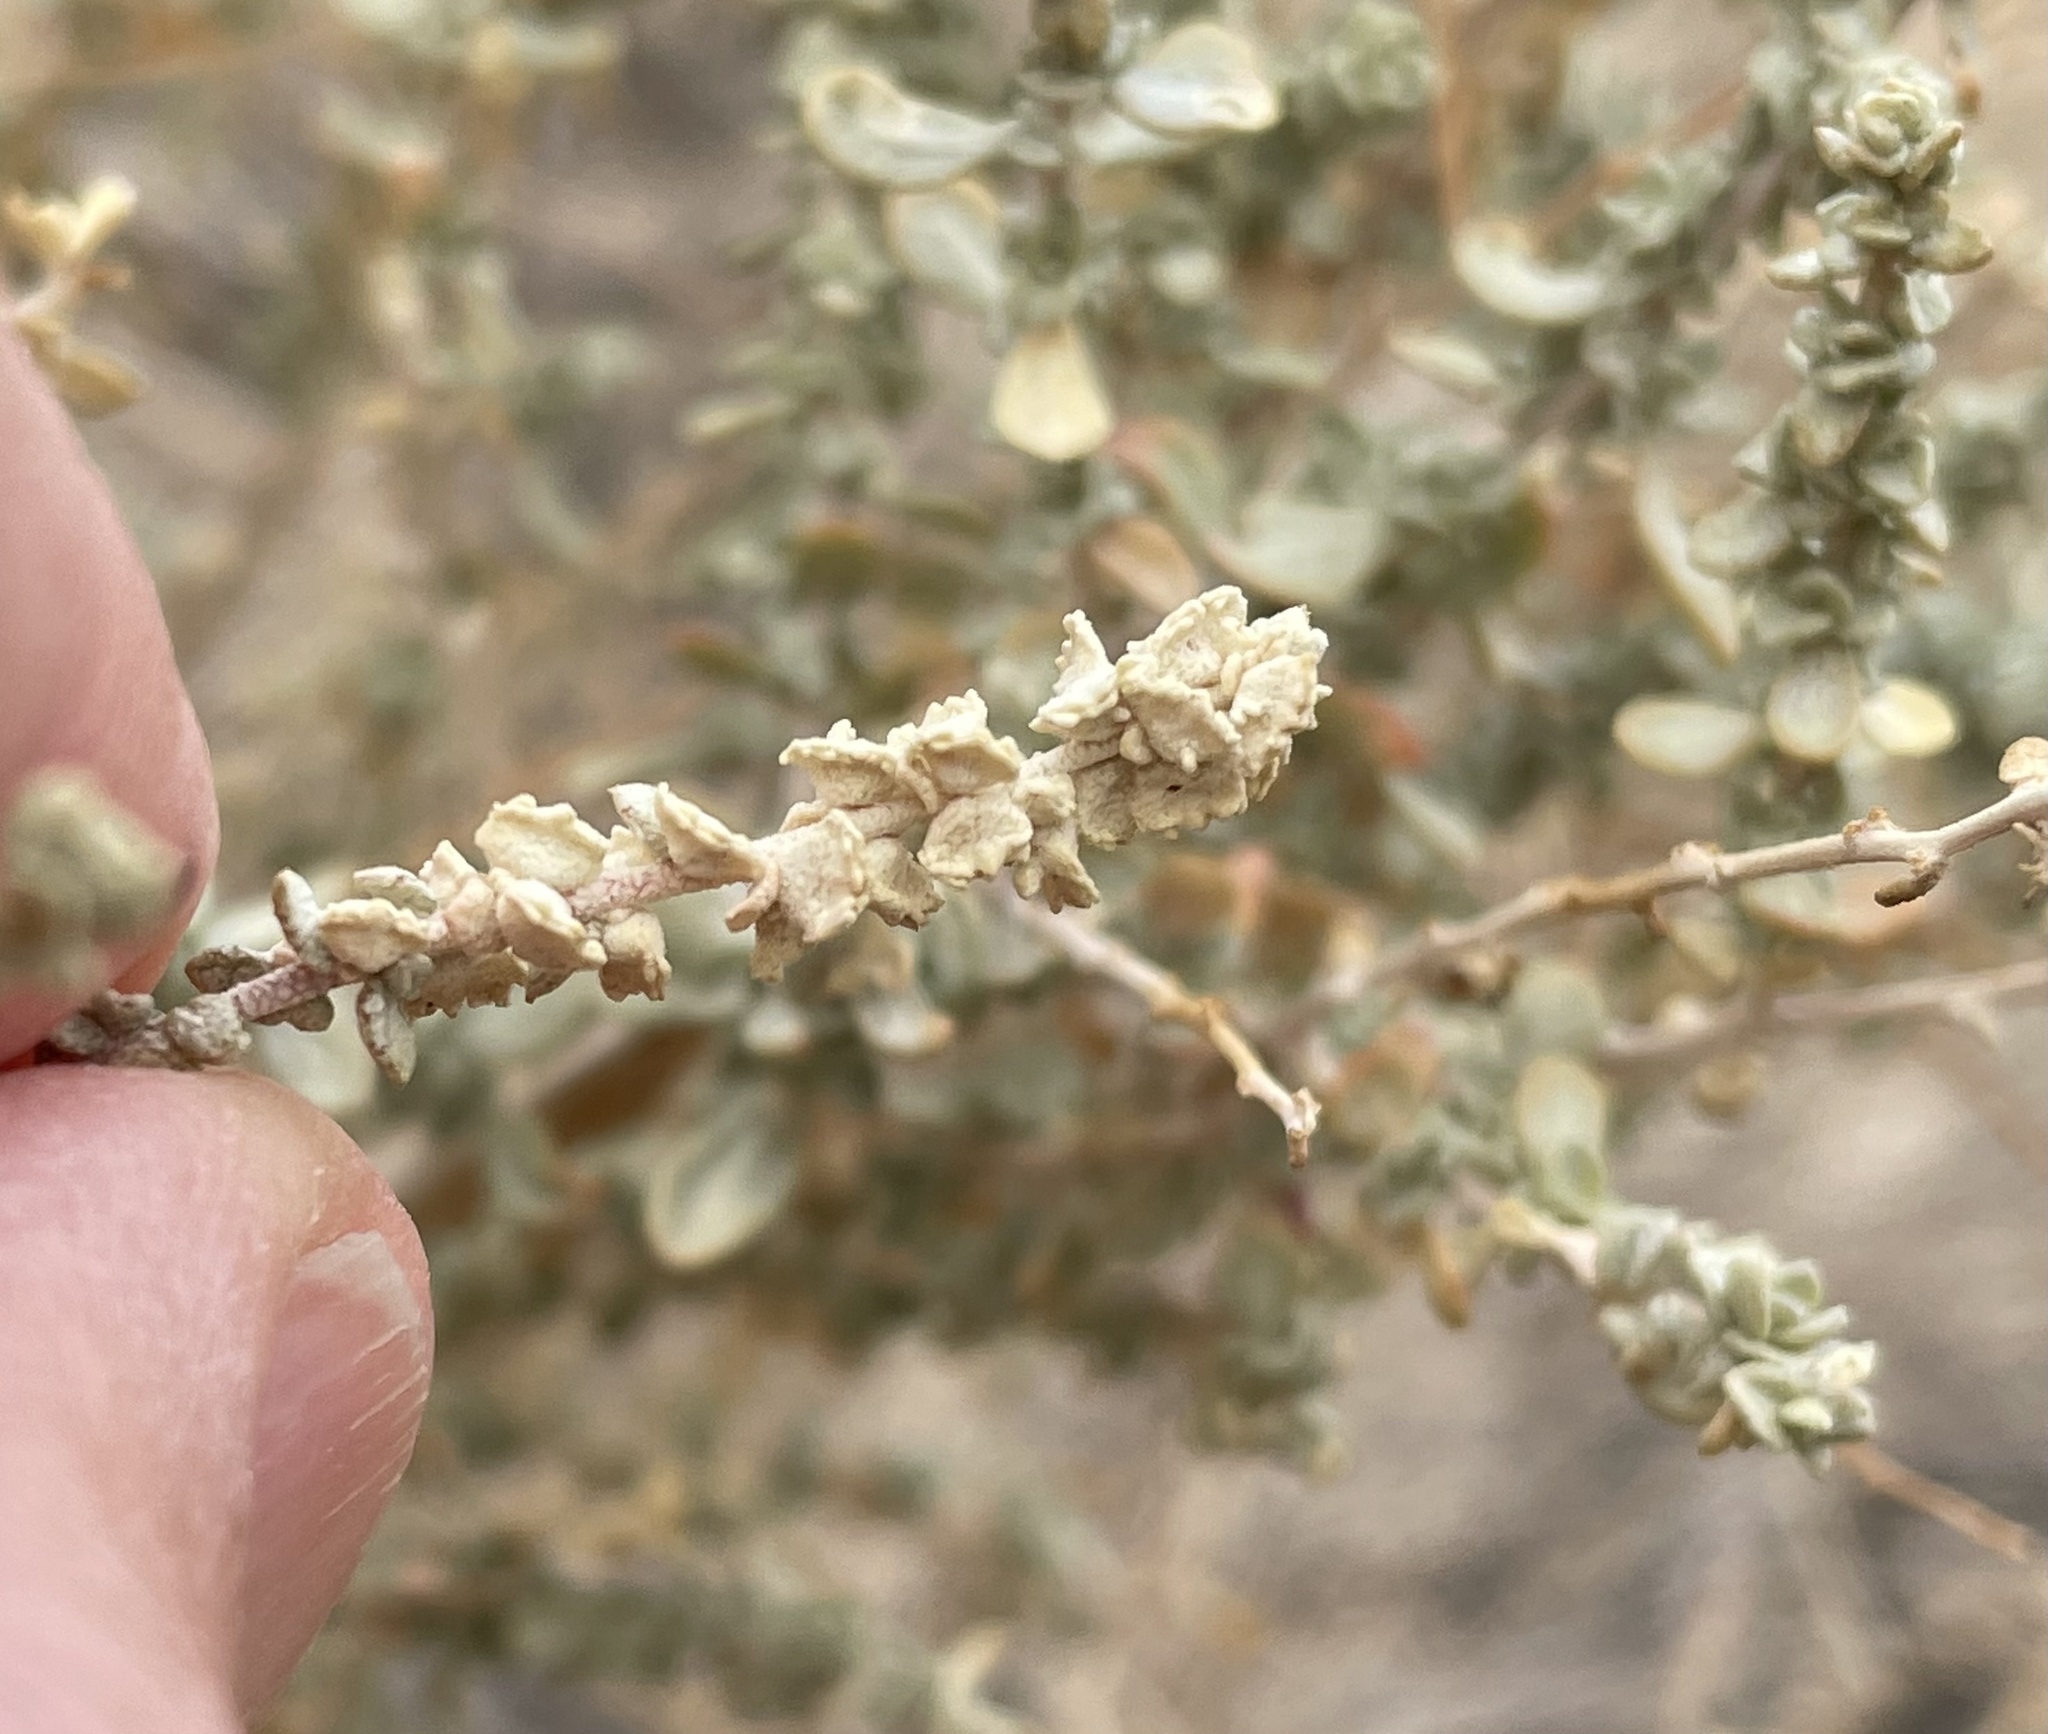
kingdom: Plantae
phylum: Tracheophyta
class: Magnoliopsida
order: Caryophyllales
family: Amaranthaceae
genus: Atriplex
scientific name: Atriplex polycarpa
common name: Desert saltbush
